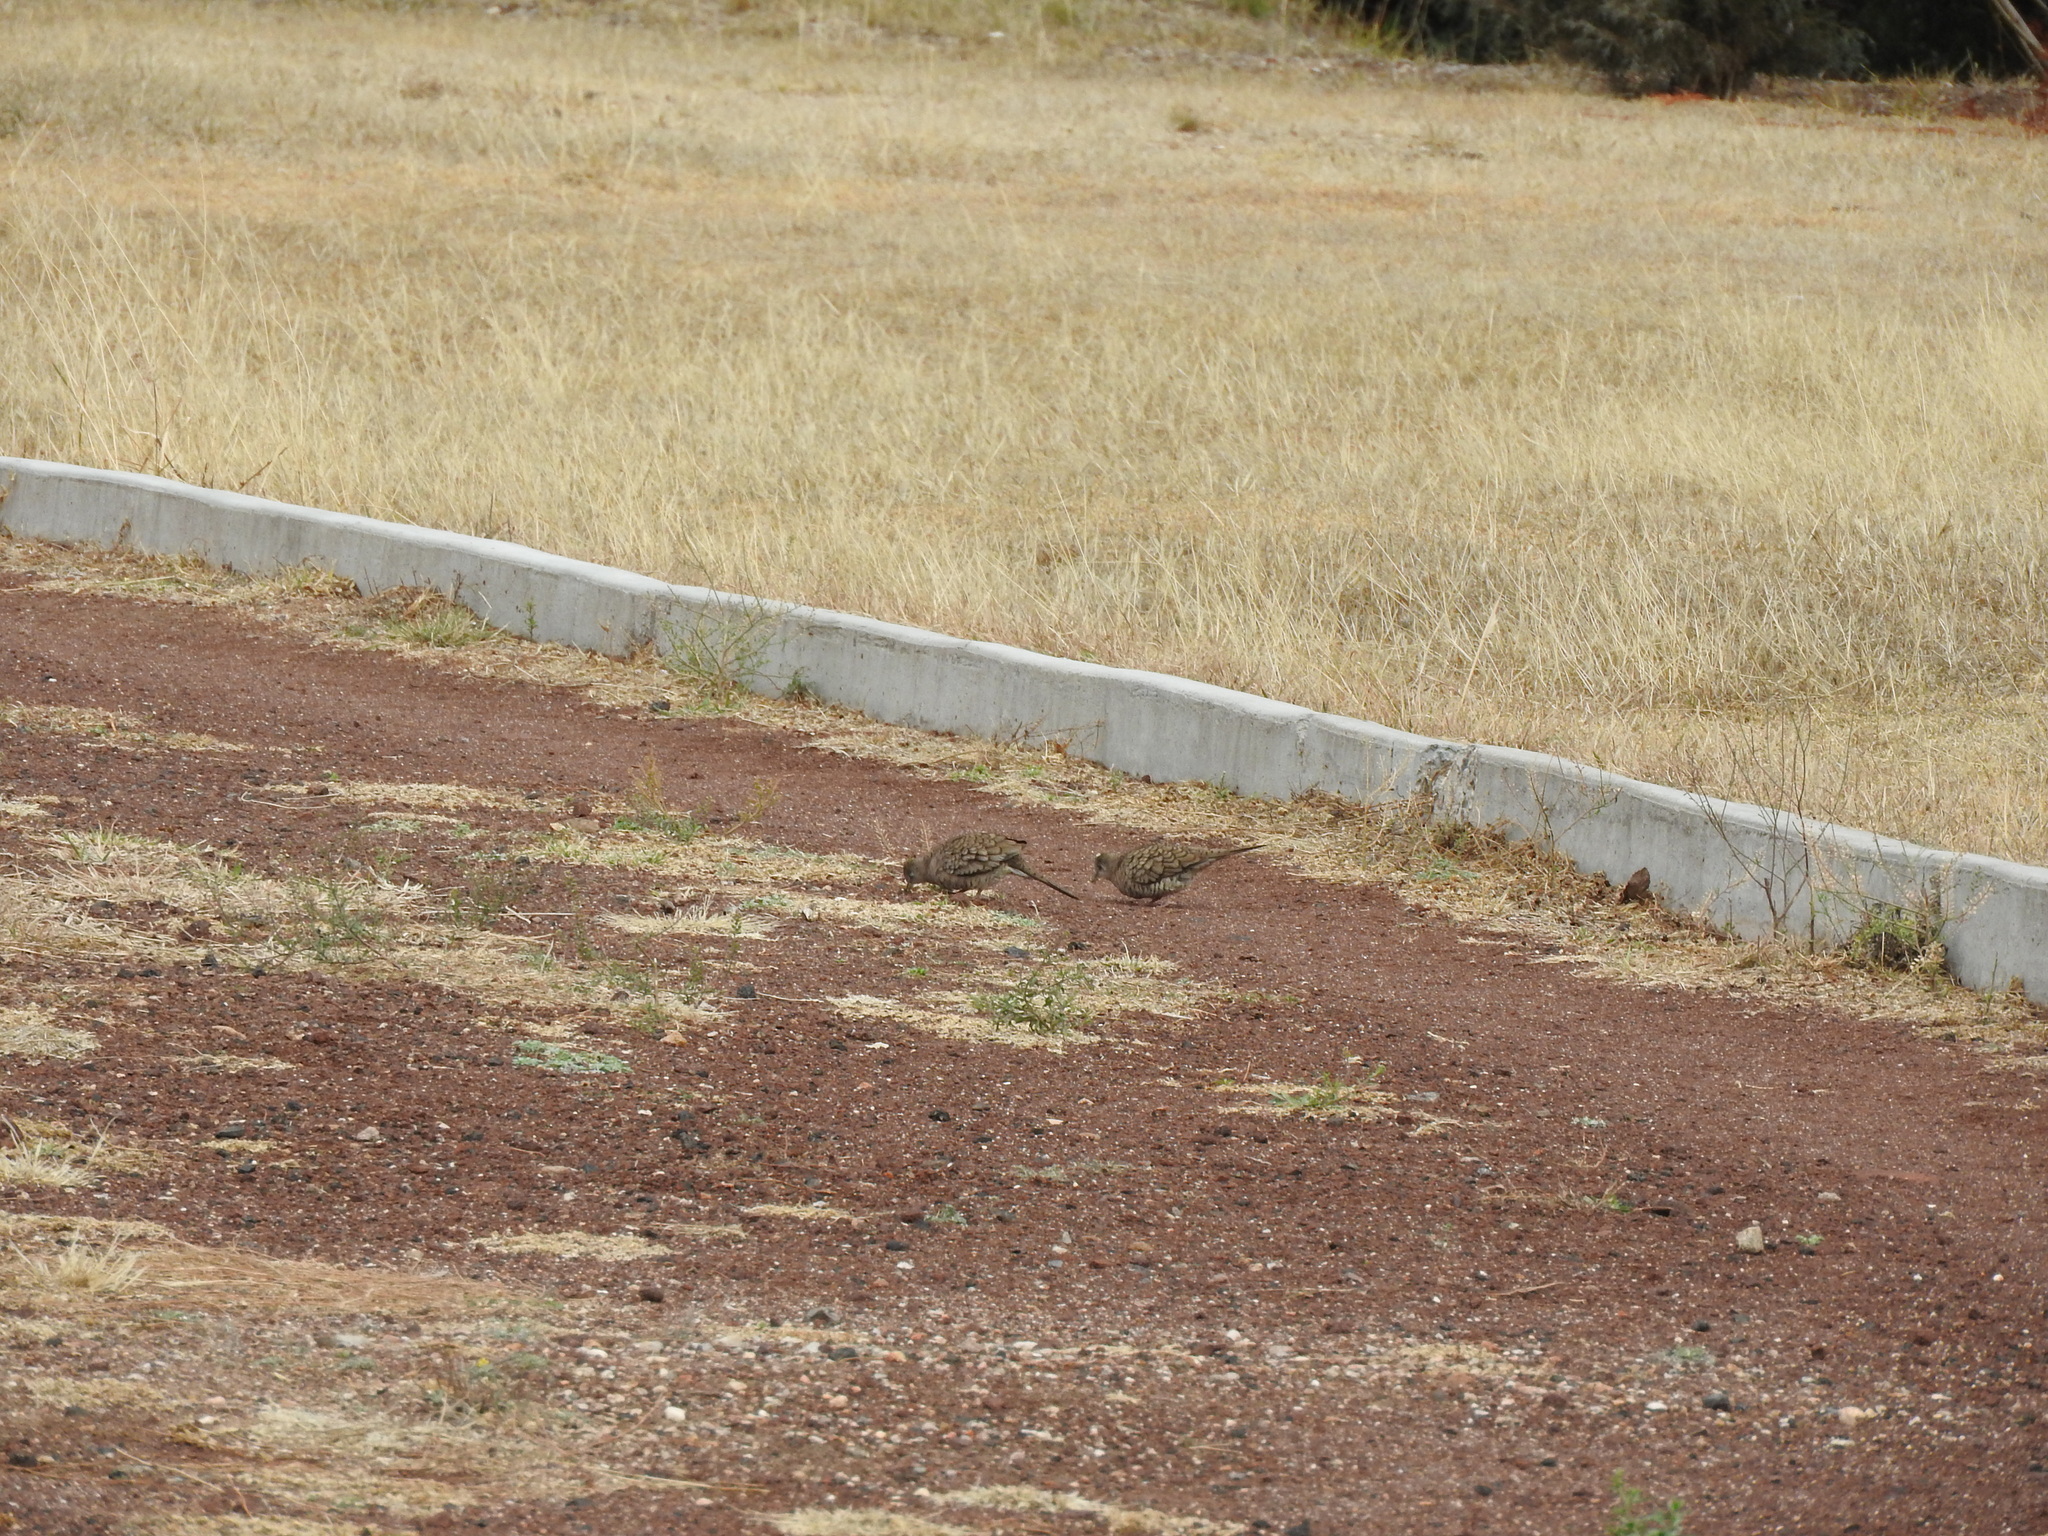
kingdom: Animalia
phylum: Chordata
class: Aves
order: Columbiformes
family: Columbidae
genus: Columbina
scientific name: Columbina inca
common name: Inca dove
